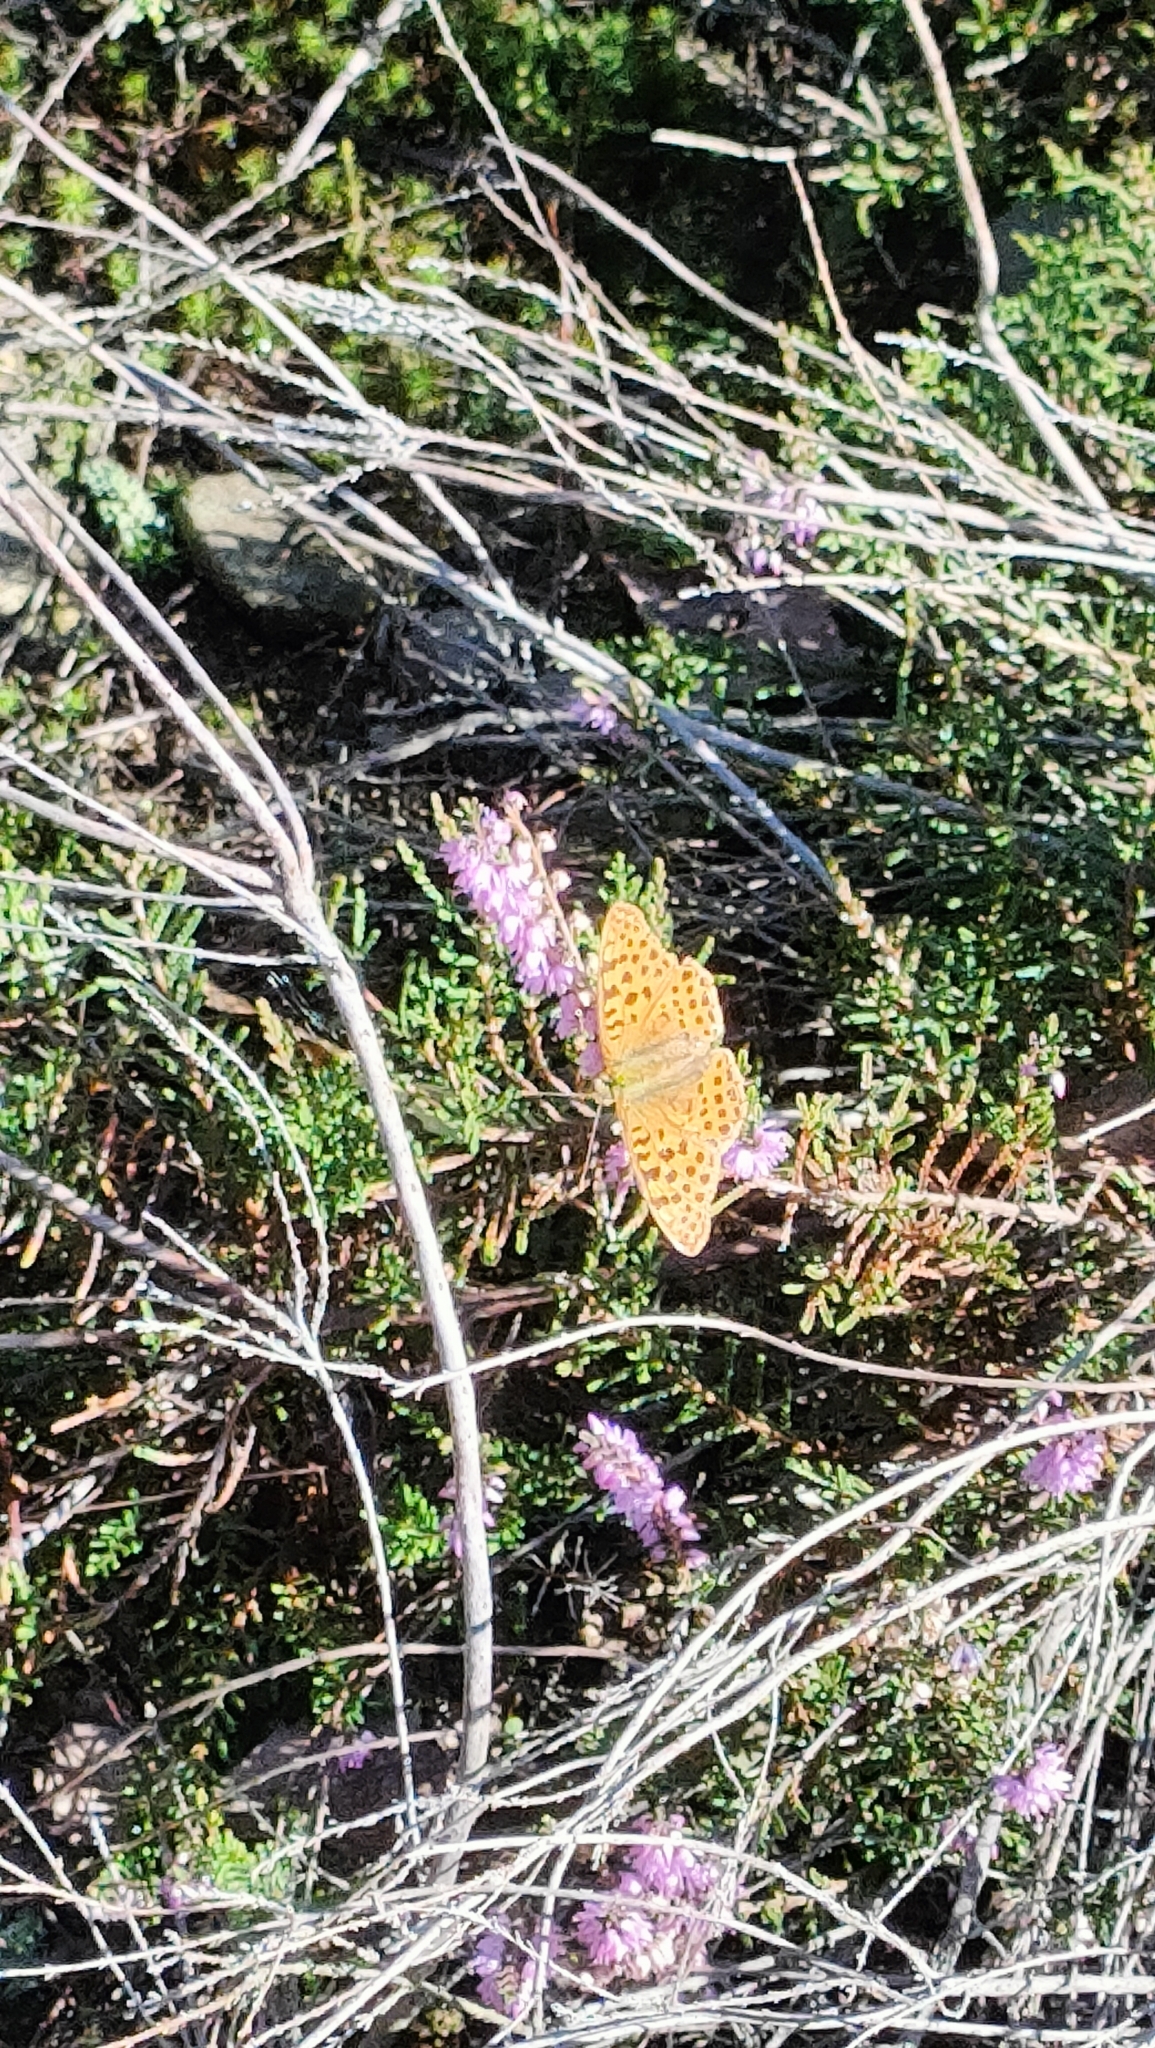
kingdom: Animalia
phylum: Arthropoda
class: Insecta
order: Lepidoptera
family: Nymphalidae
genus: Issoria
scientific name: Issoria lathonia
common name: Queen of spain fritillary
